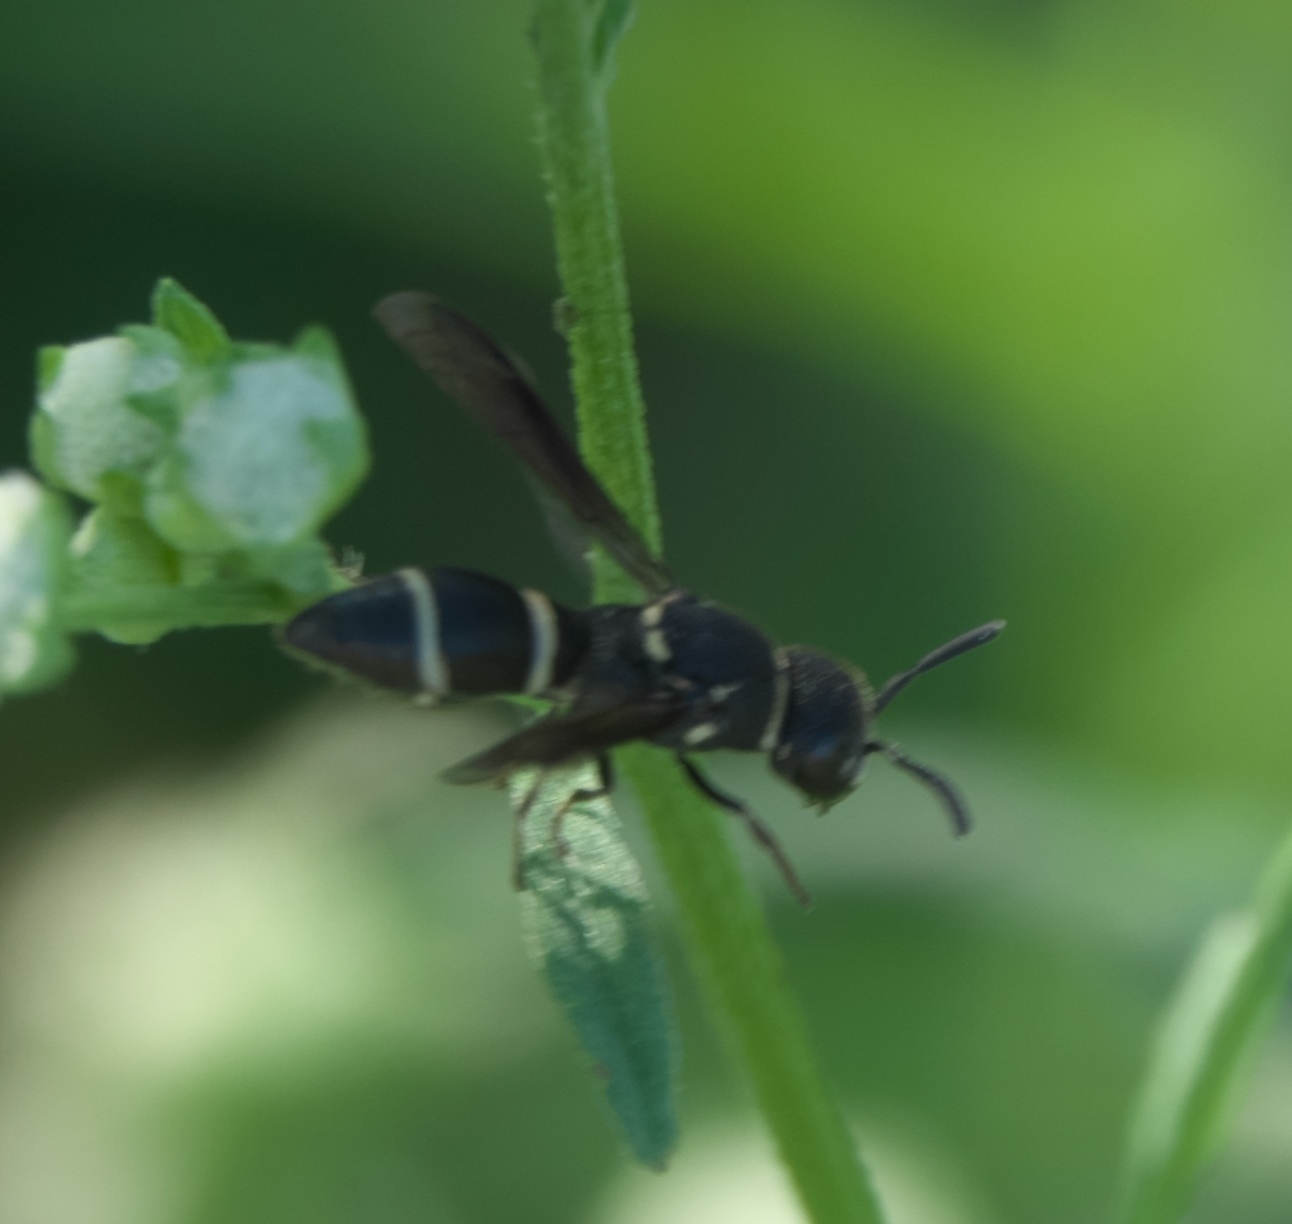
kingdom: Animalia
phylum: Arthropoda
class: Insecta
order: Hymenoptera
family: Eumenidae
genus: Hypalastoroides
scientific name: Hypalastoroides mexicanus
